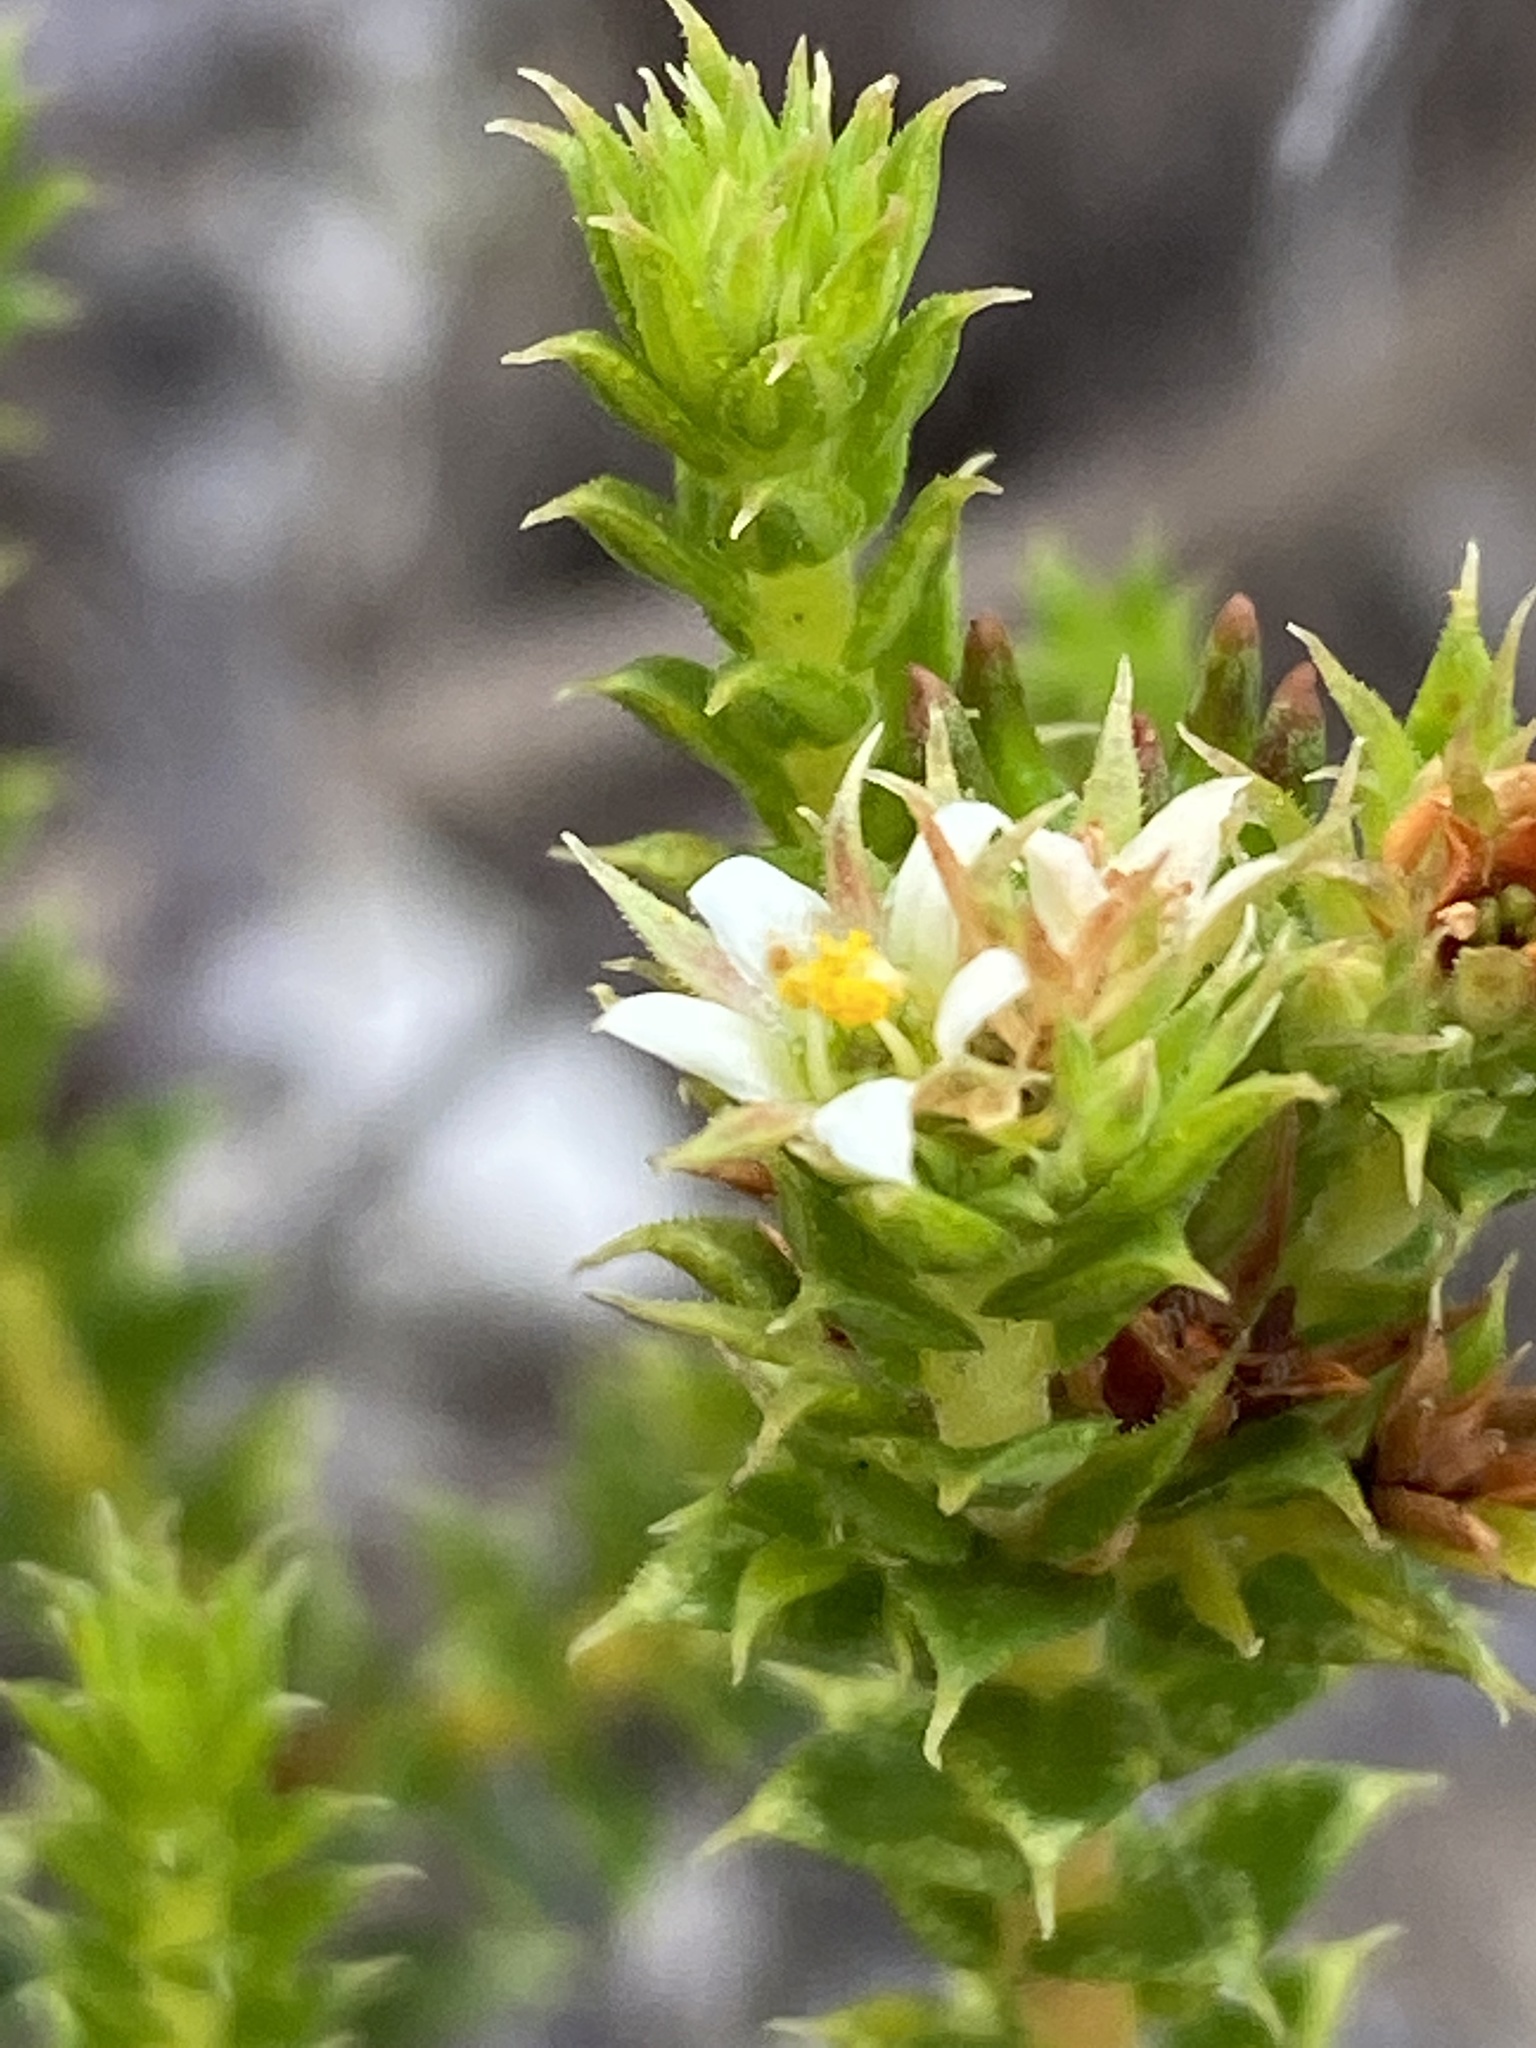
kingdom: Plantae
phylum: Tracheophyta
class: Magnoliopsida
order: Sapindales
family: Rutaceae
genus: Diosma
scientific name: Diosma echinulata
